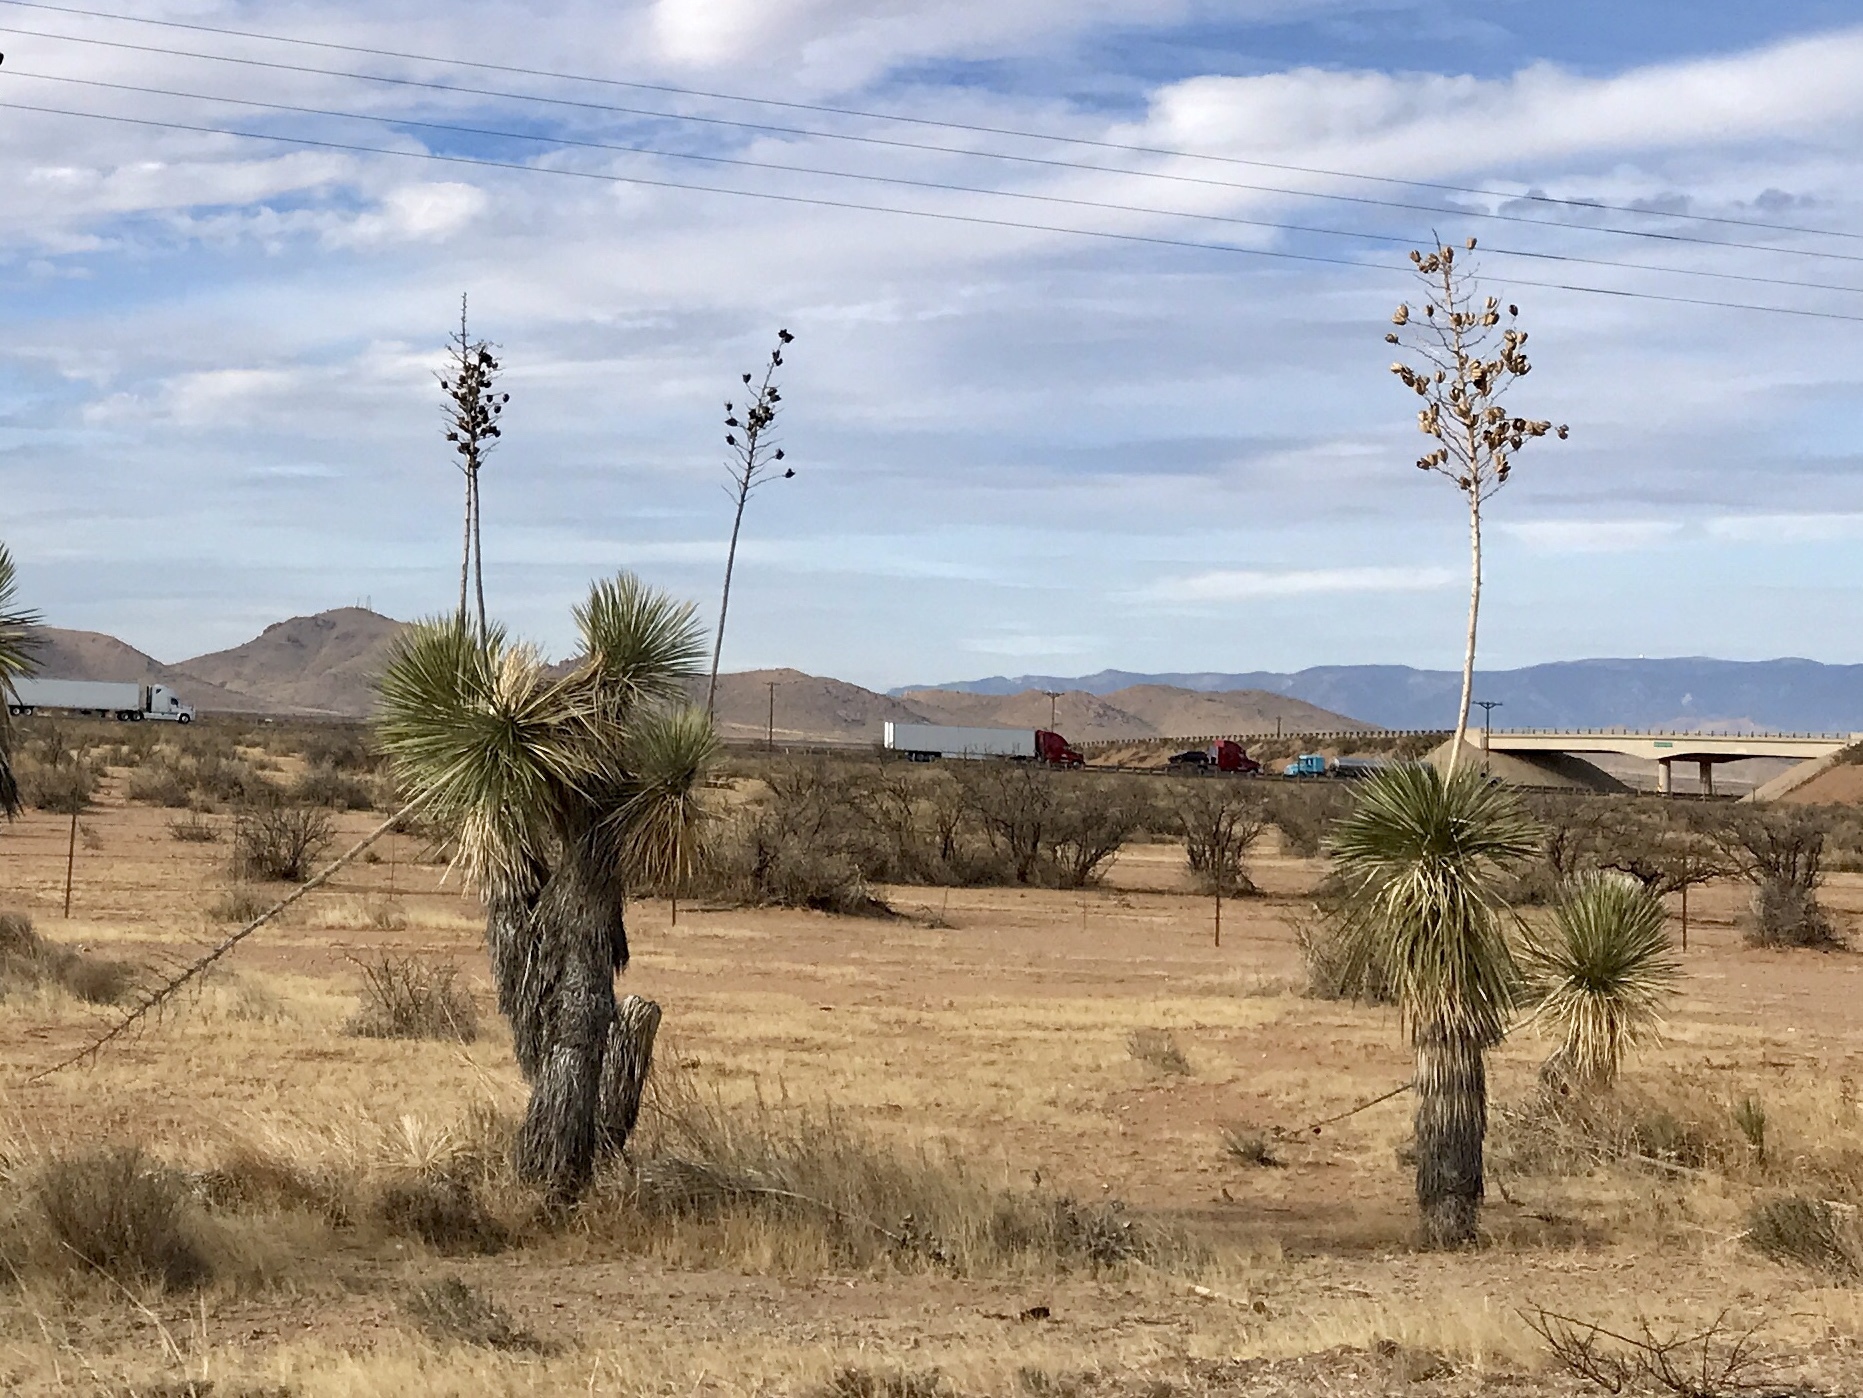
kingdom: Plantae
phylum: Tracheophyta
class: Liliopsida
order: Asparagales
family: Asparagaceae
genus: Yucca
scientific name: Yucca elata
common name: Palmella
